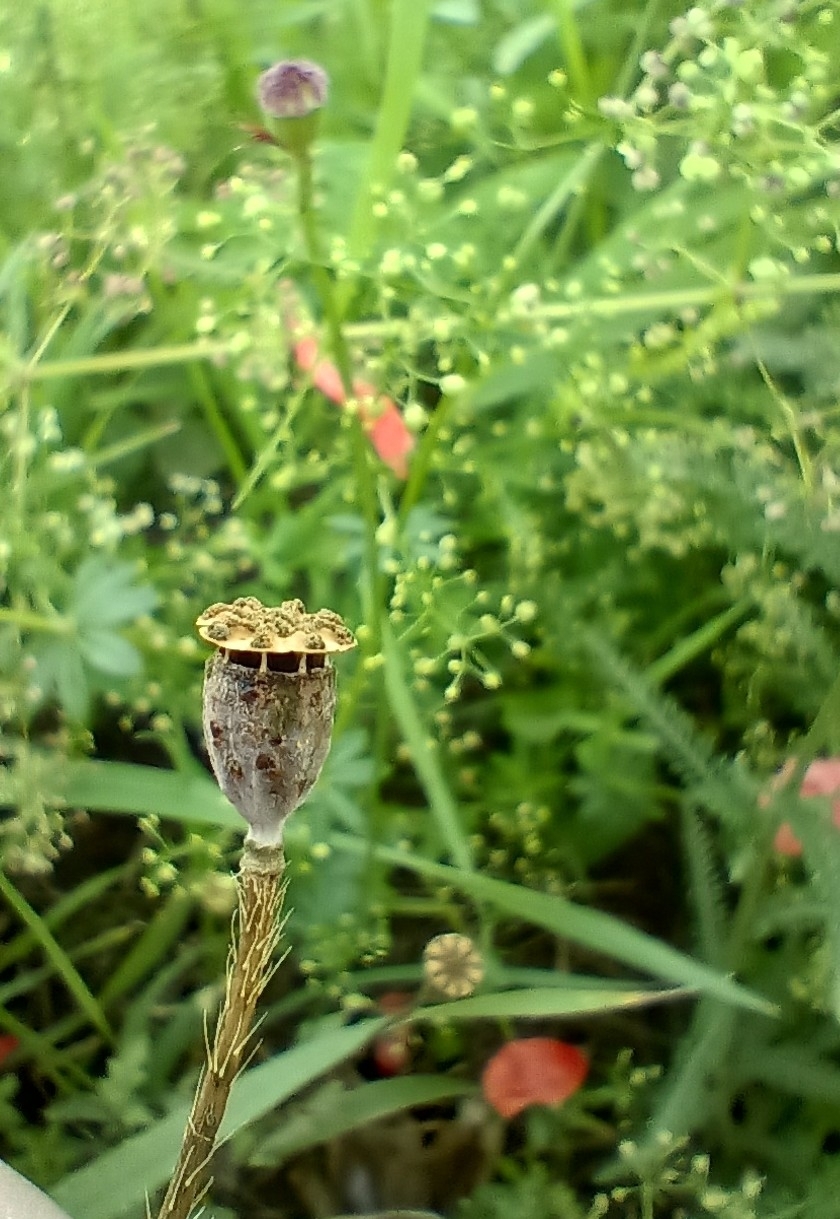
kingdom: Plantae
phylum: Tracheophyta
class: Magnoliopsida
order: Ranunculales
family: Papaveraceae
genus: Papaver
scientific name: Papaver rhoeas
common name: Corn poppy
